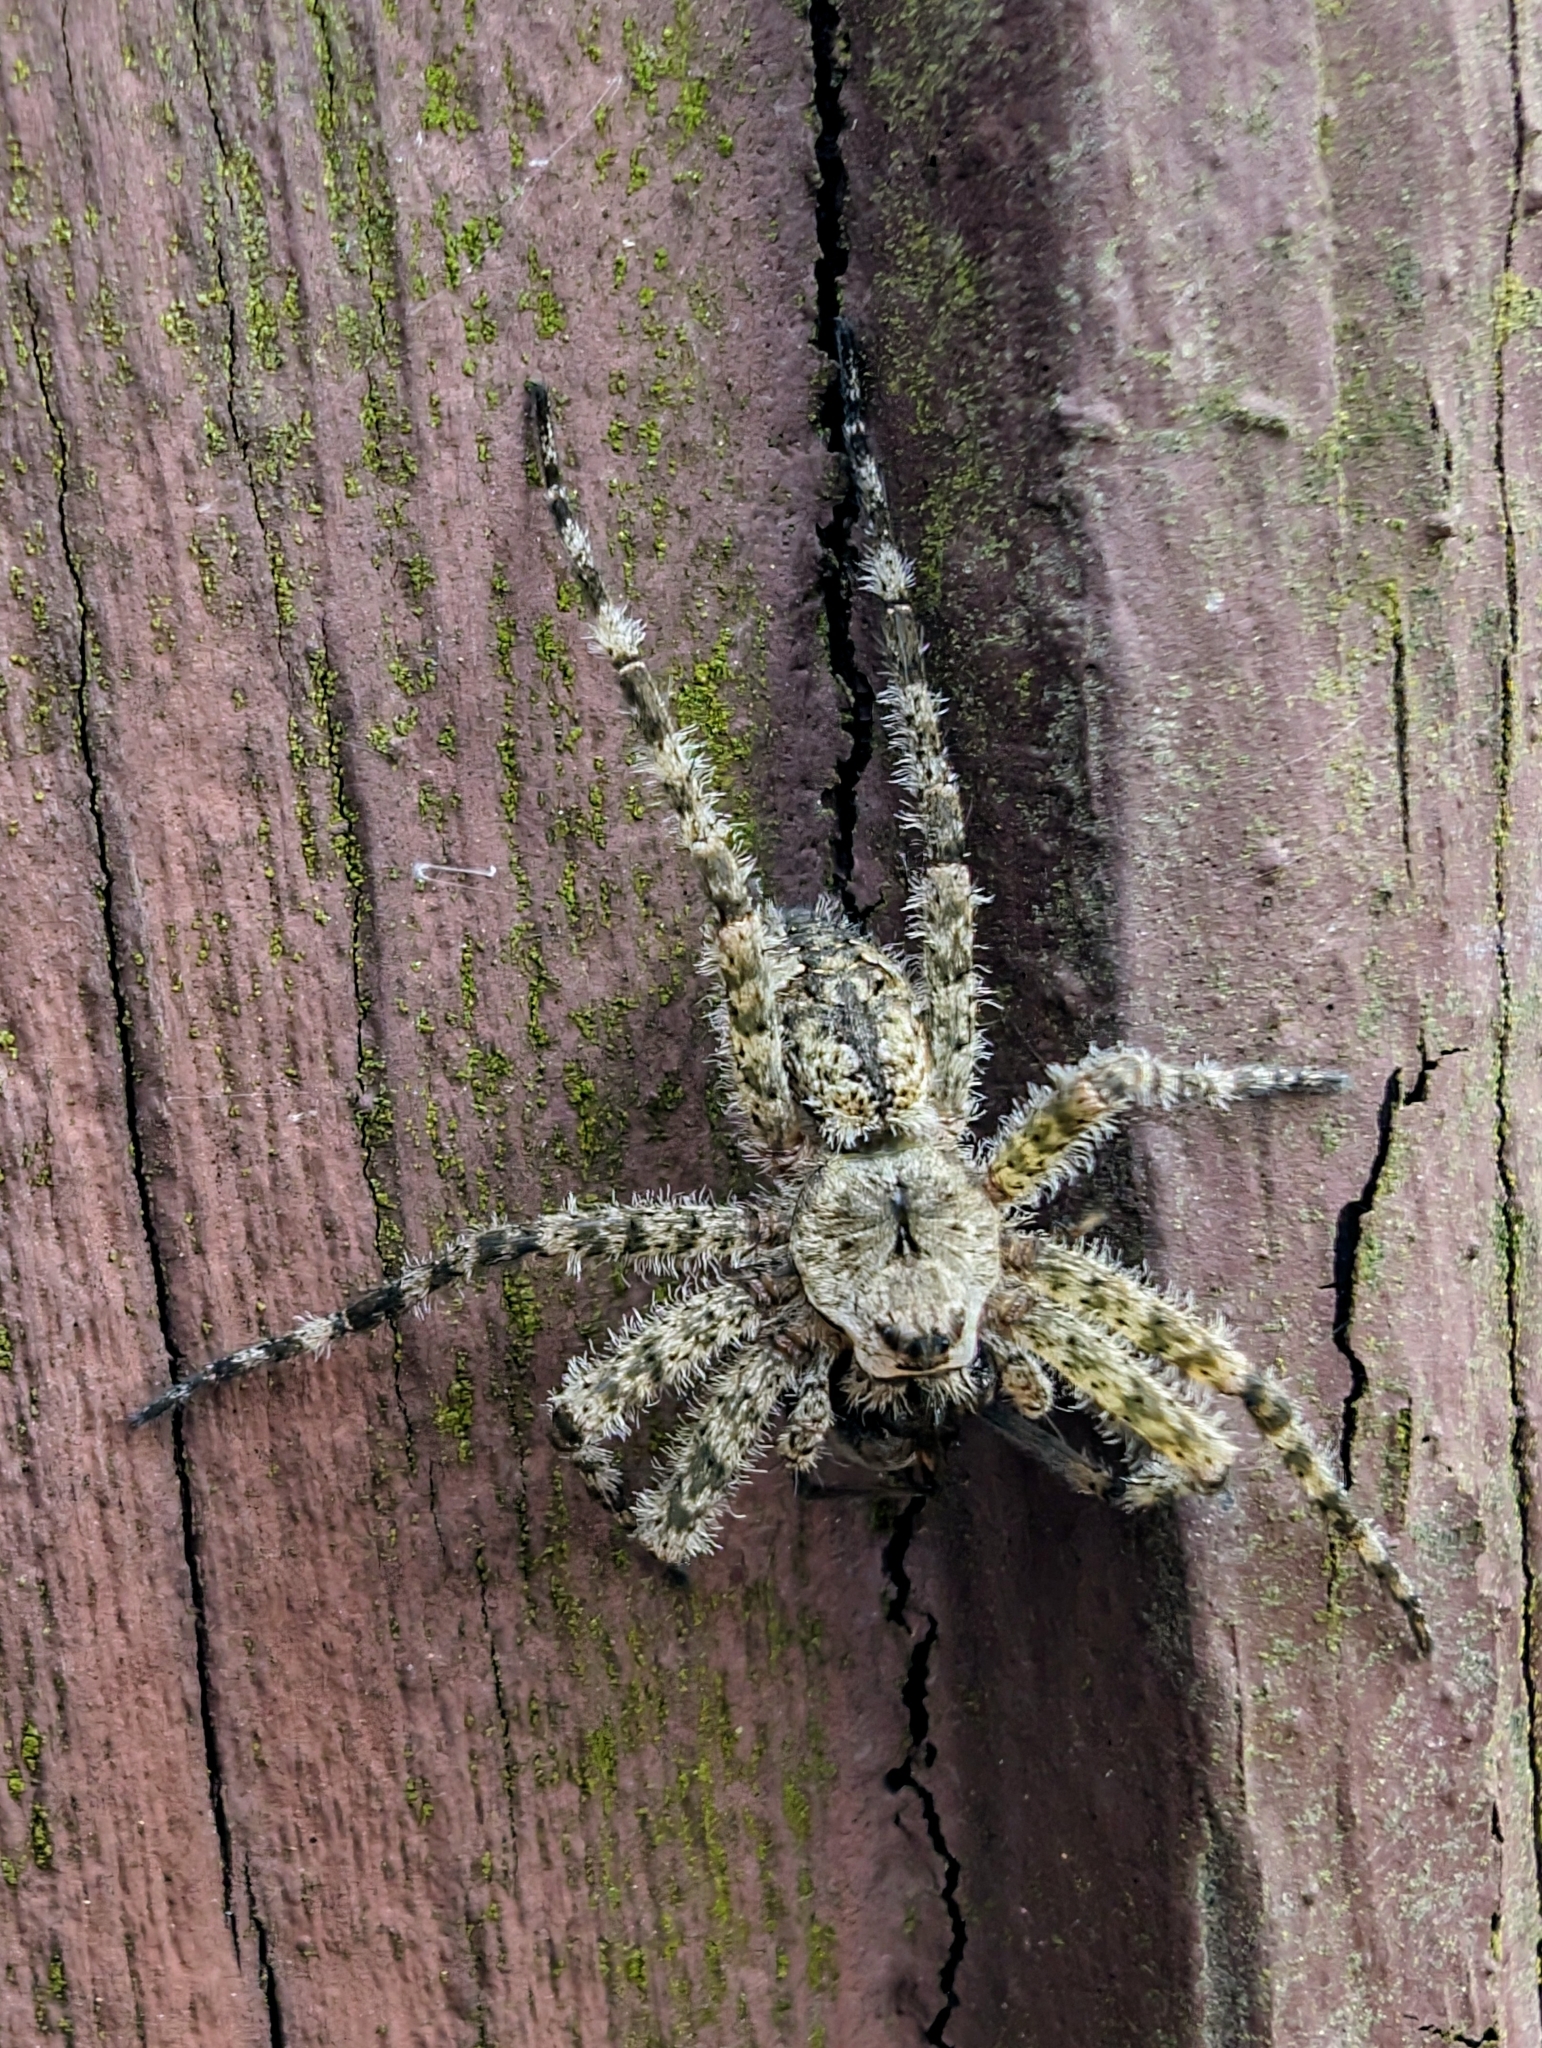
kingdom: Animalia
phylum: Arthropoda
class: Arachnida
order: Araneae
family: Pisauridae
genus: Dolomedes
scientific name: Dolomedes albineus
